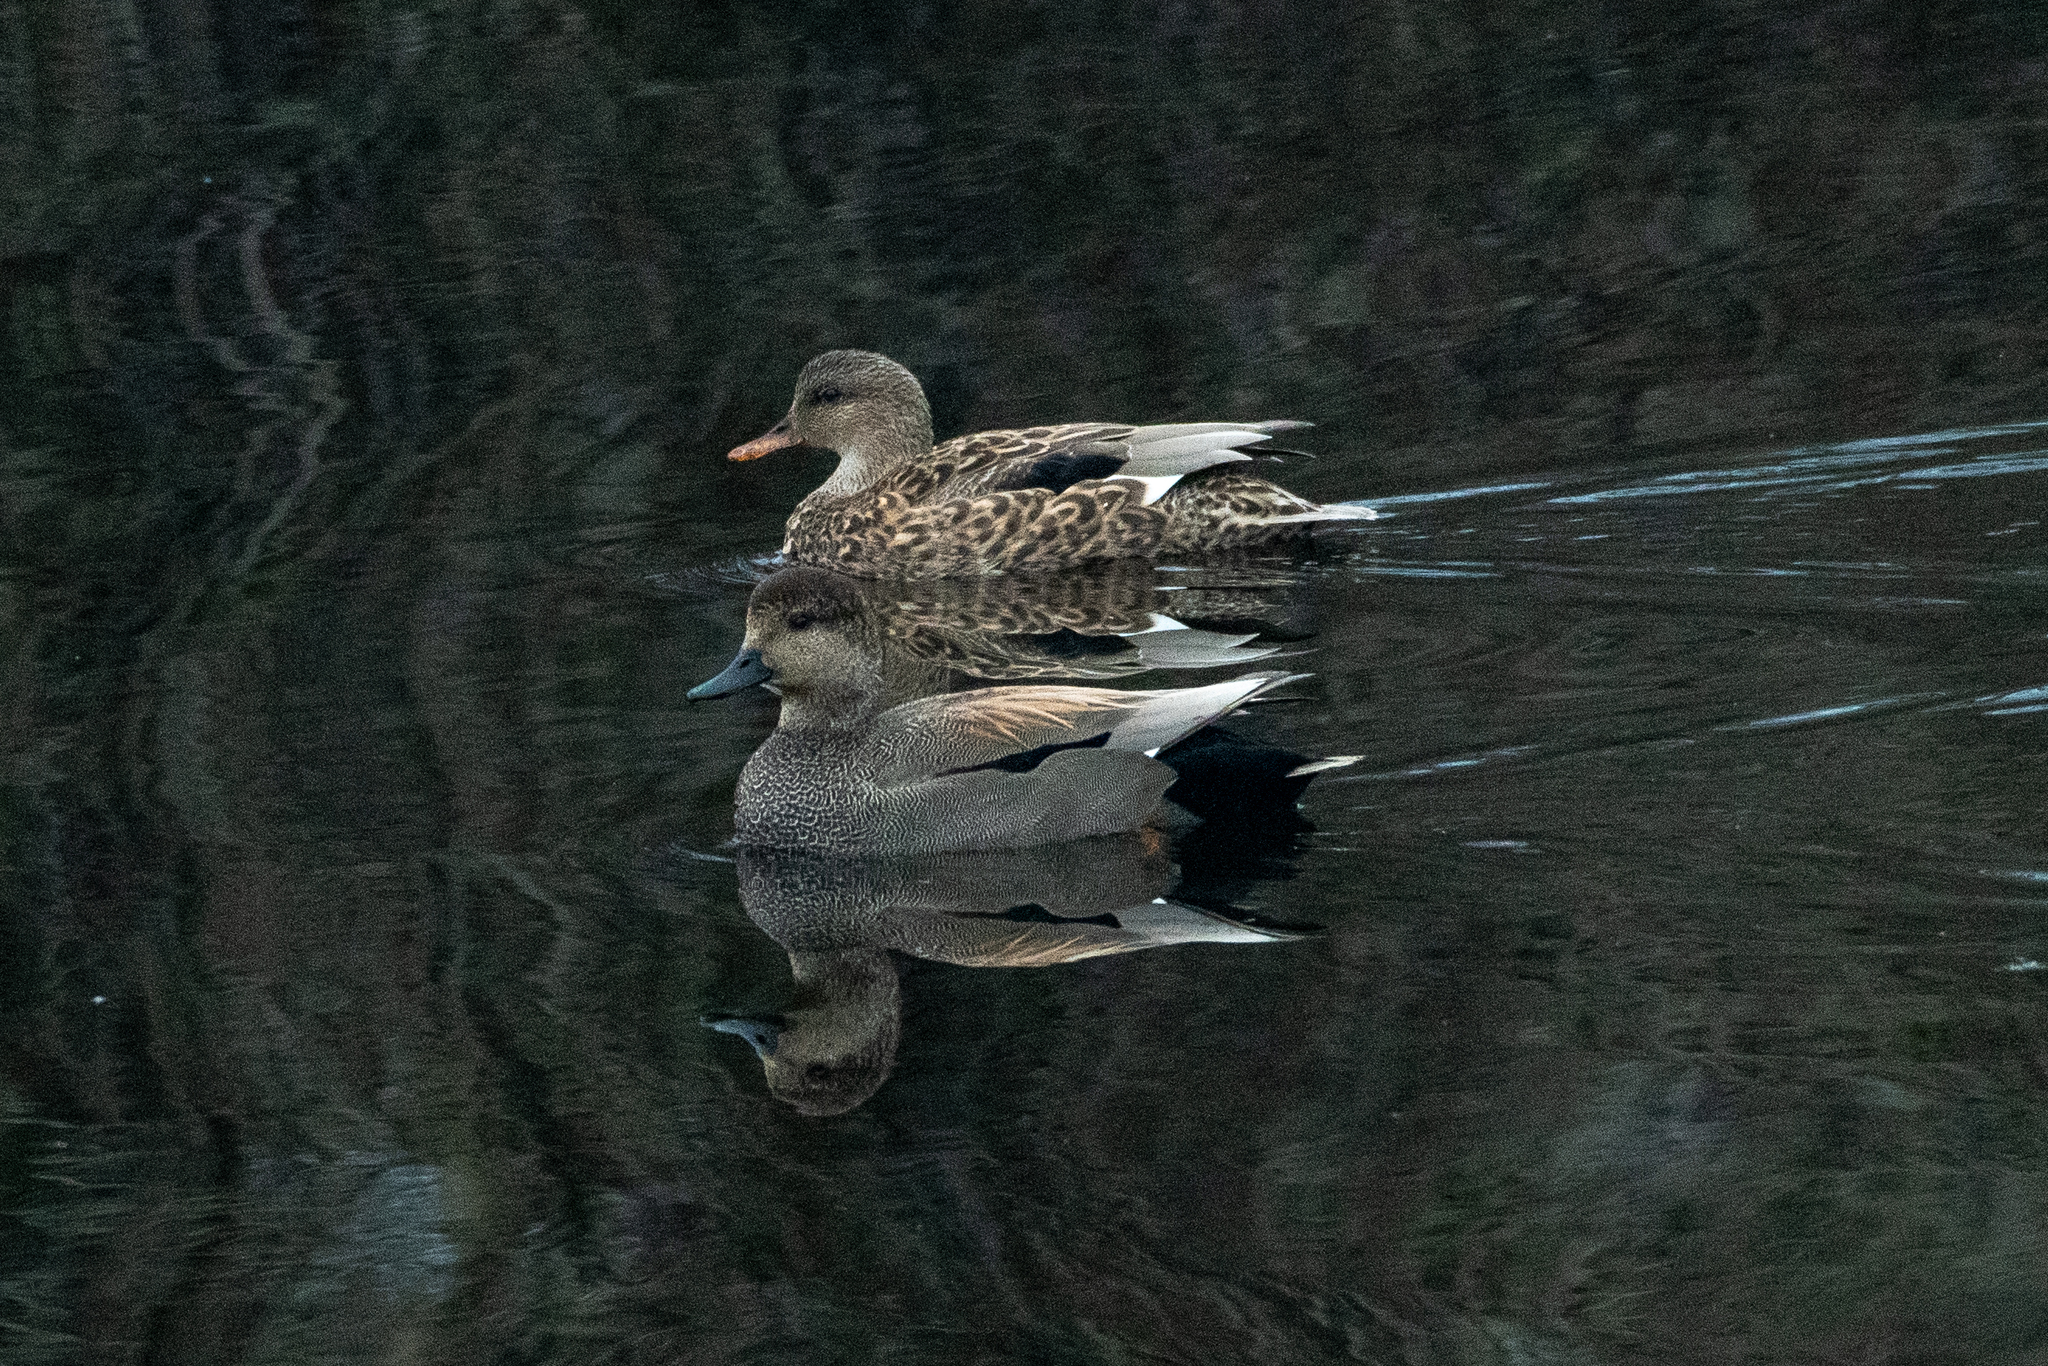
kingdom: Animalia
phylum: Chordata
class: Aves
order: Anseriformes
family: Anatidae
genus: Mareca
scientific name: Mareca strepera
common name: Gadwall
